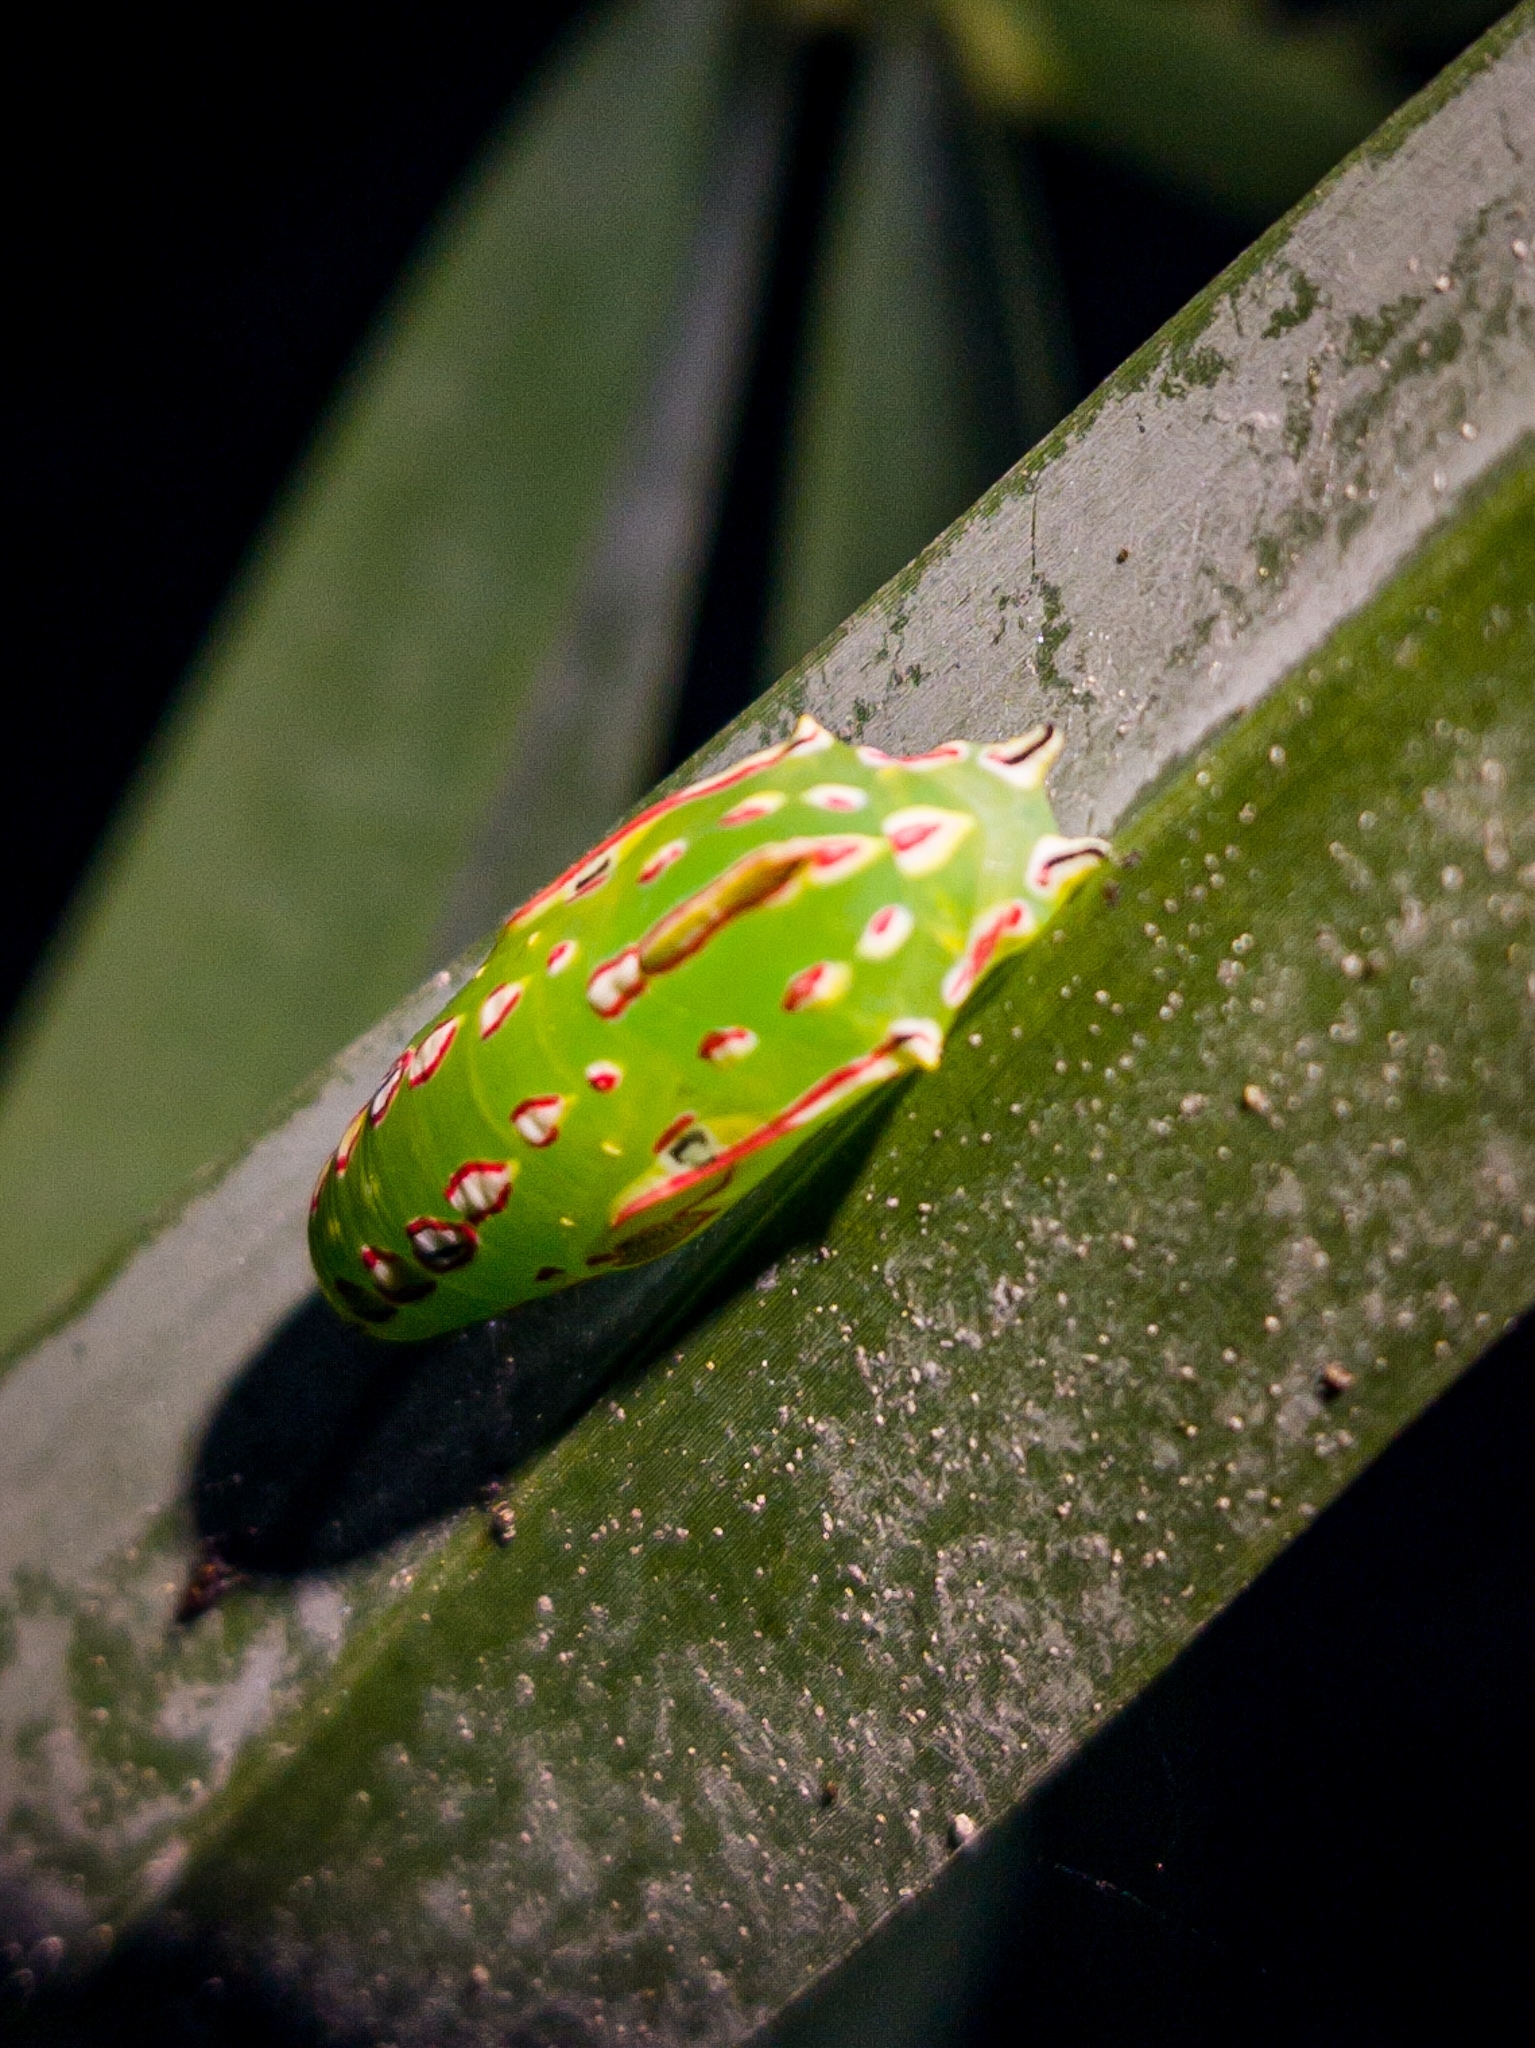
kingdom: Animalia
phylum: Arthropoda
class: Insecta
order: Lepidoptera
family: Nymphalidae
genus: Elymnias
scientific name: Elymnias caudata
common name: Tailed palmfly
